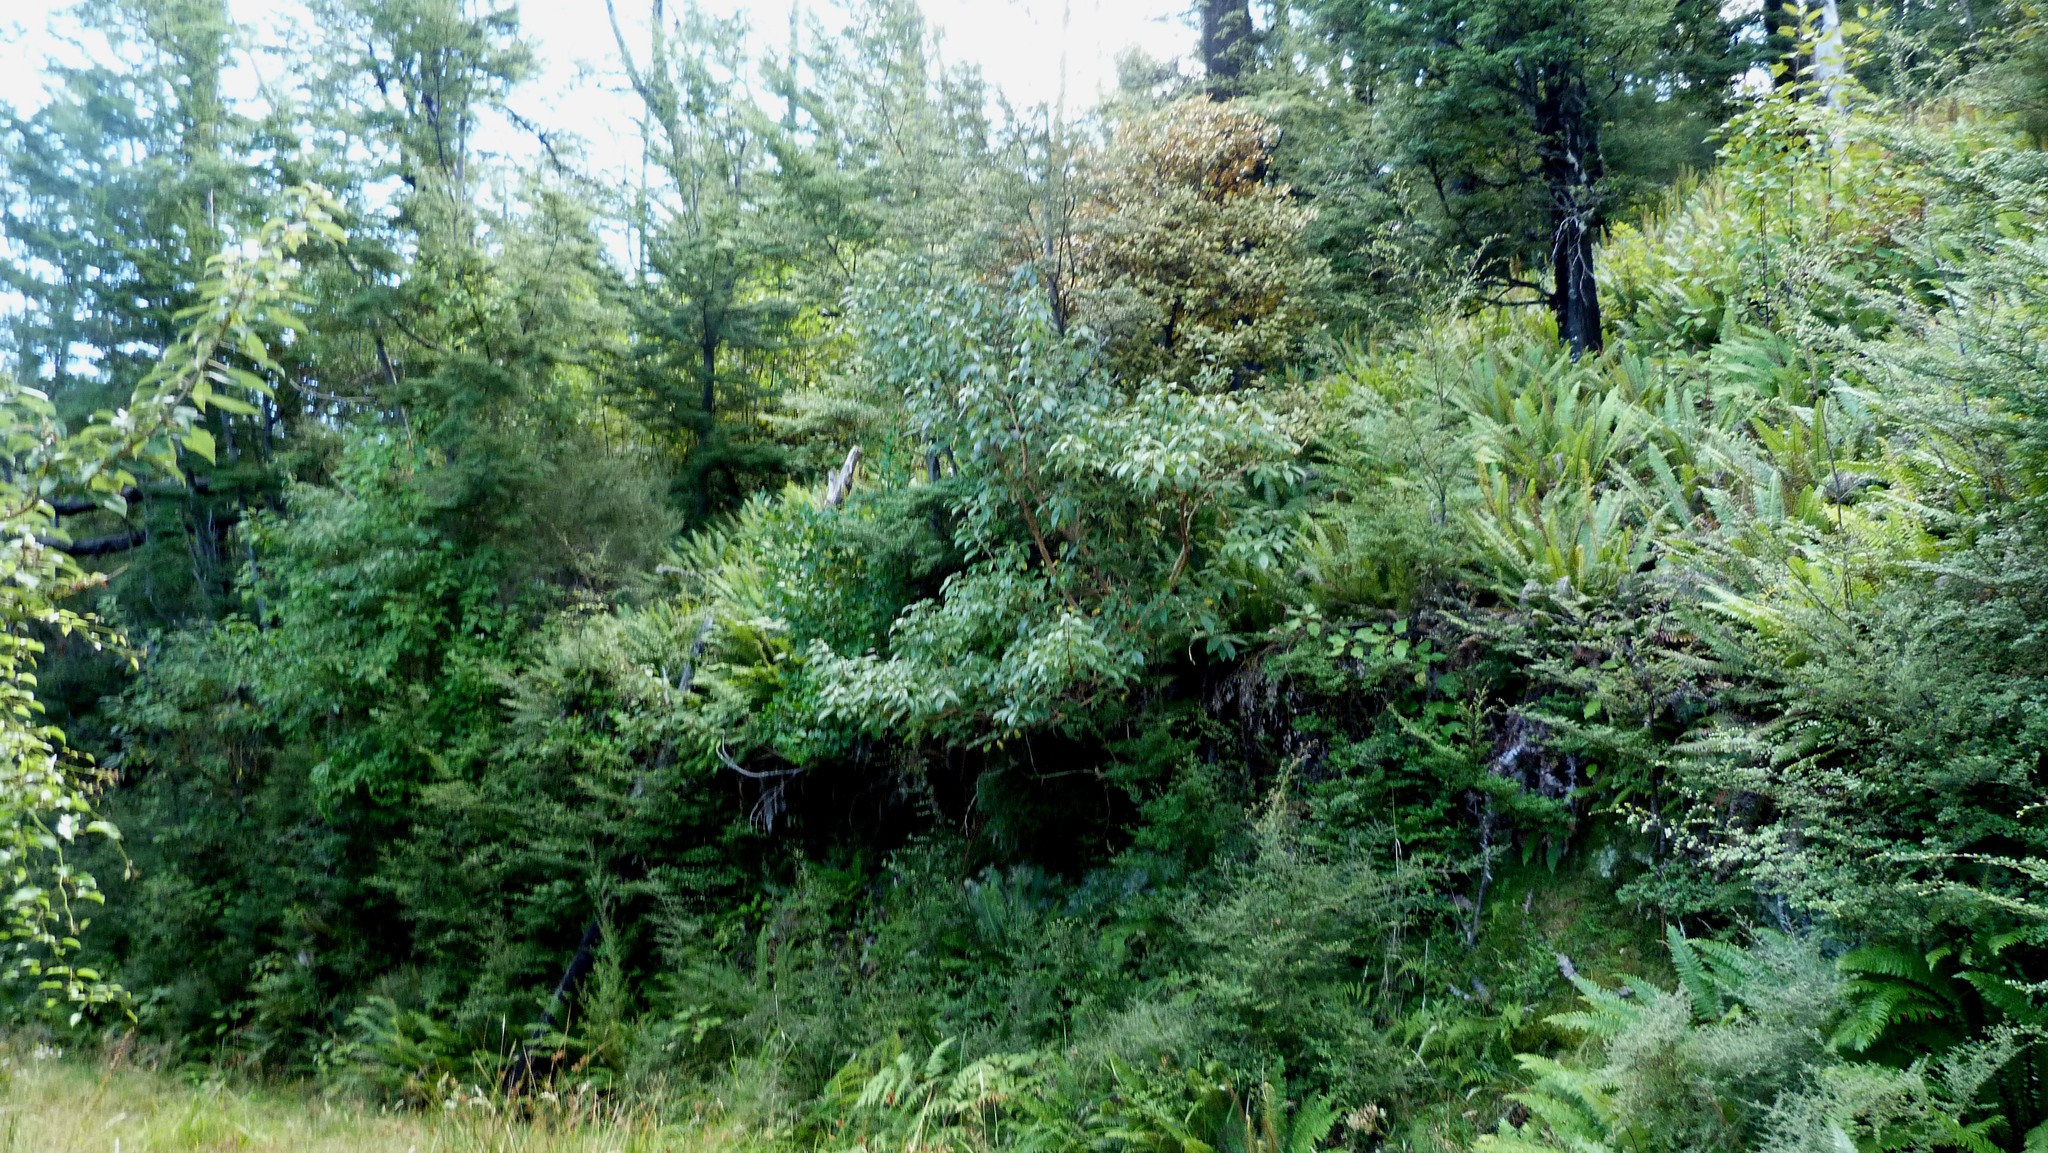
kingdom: Plantae
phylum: Tracheophyta
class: Magnoliopsida
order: Myrtales
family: Onagraceae
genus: Fuchsia
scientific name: Fuchsia excorticata
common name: Tree fuchsia
